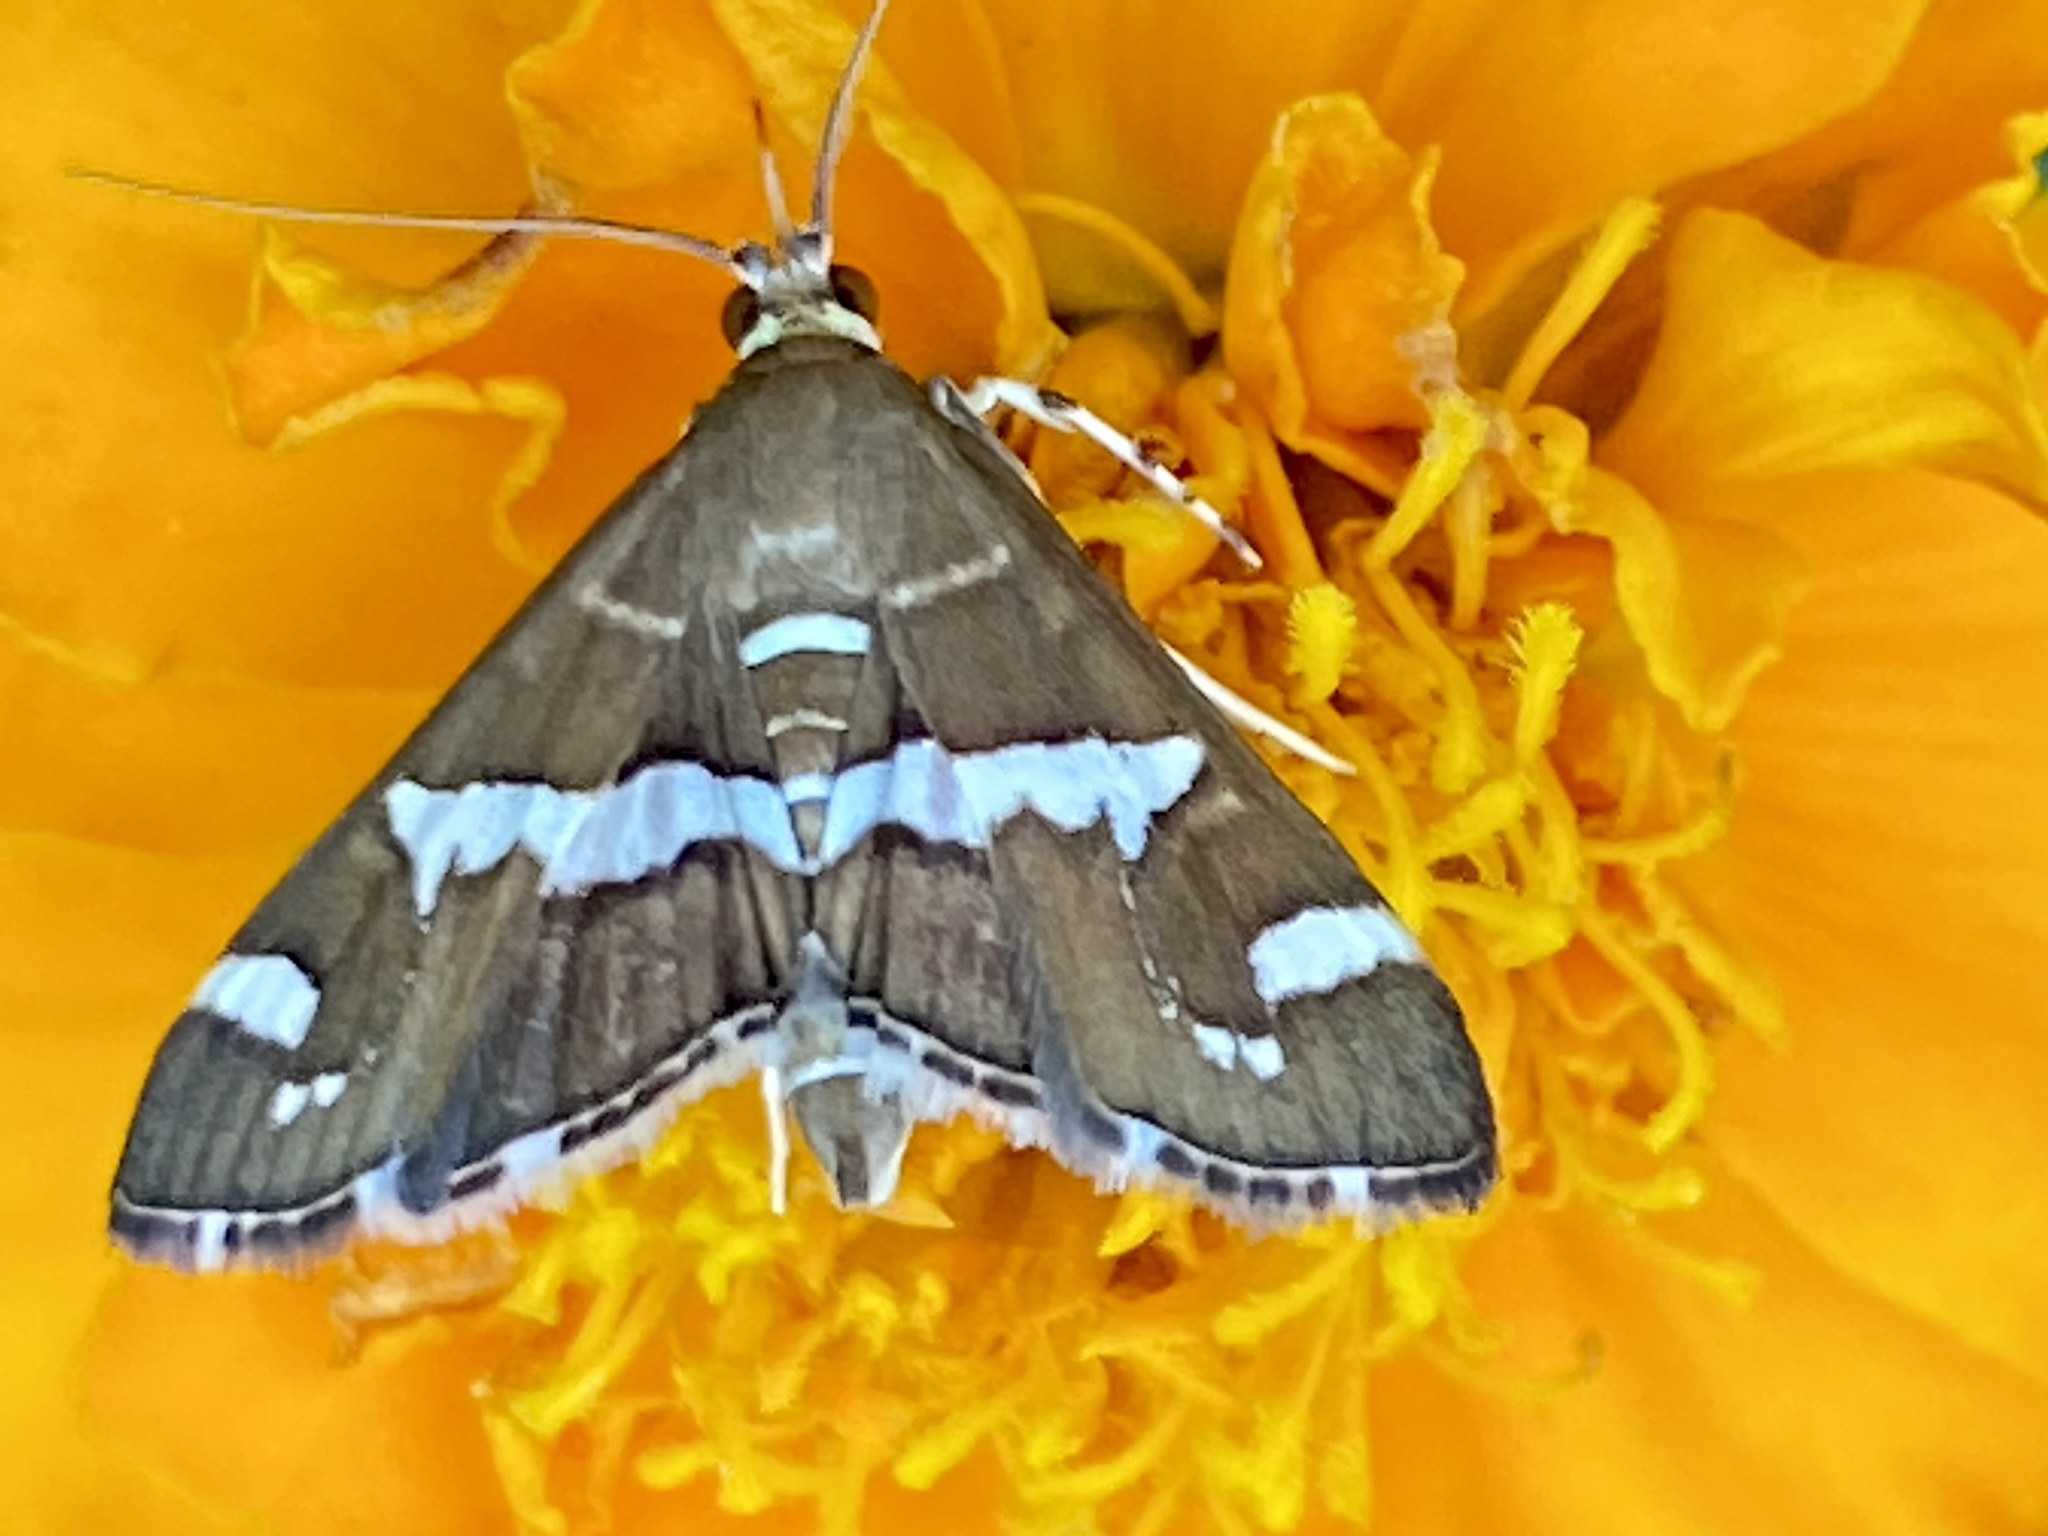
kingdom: Animalia
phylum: Arthropoda
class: Insecta
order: Lepidoptera
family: Crambidae
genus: Spoladea
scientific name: Spoladea recurvalis
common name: Beet webworm moth
